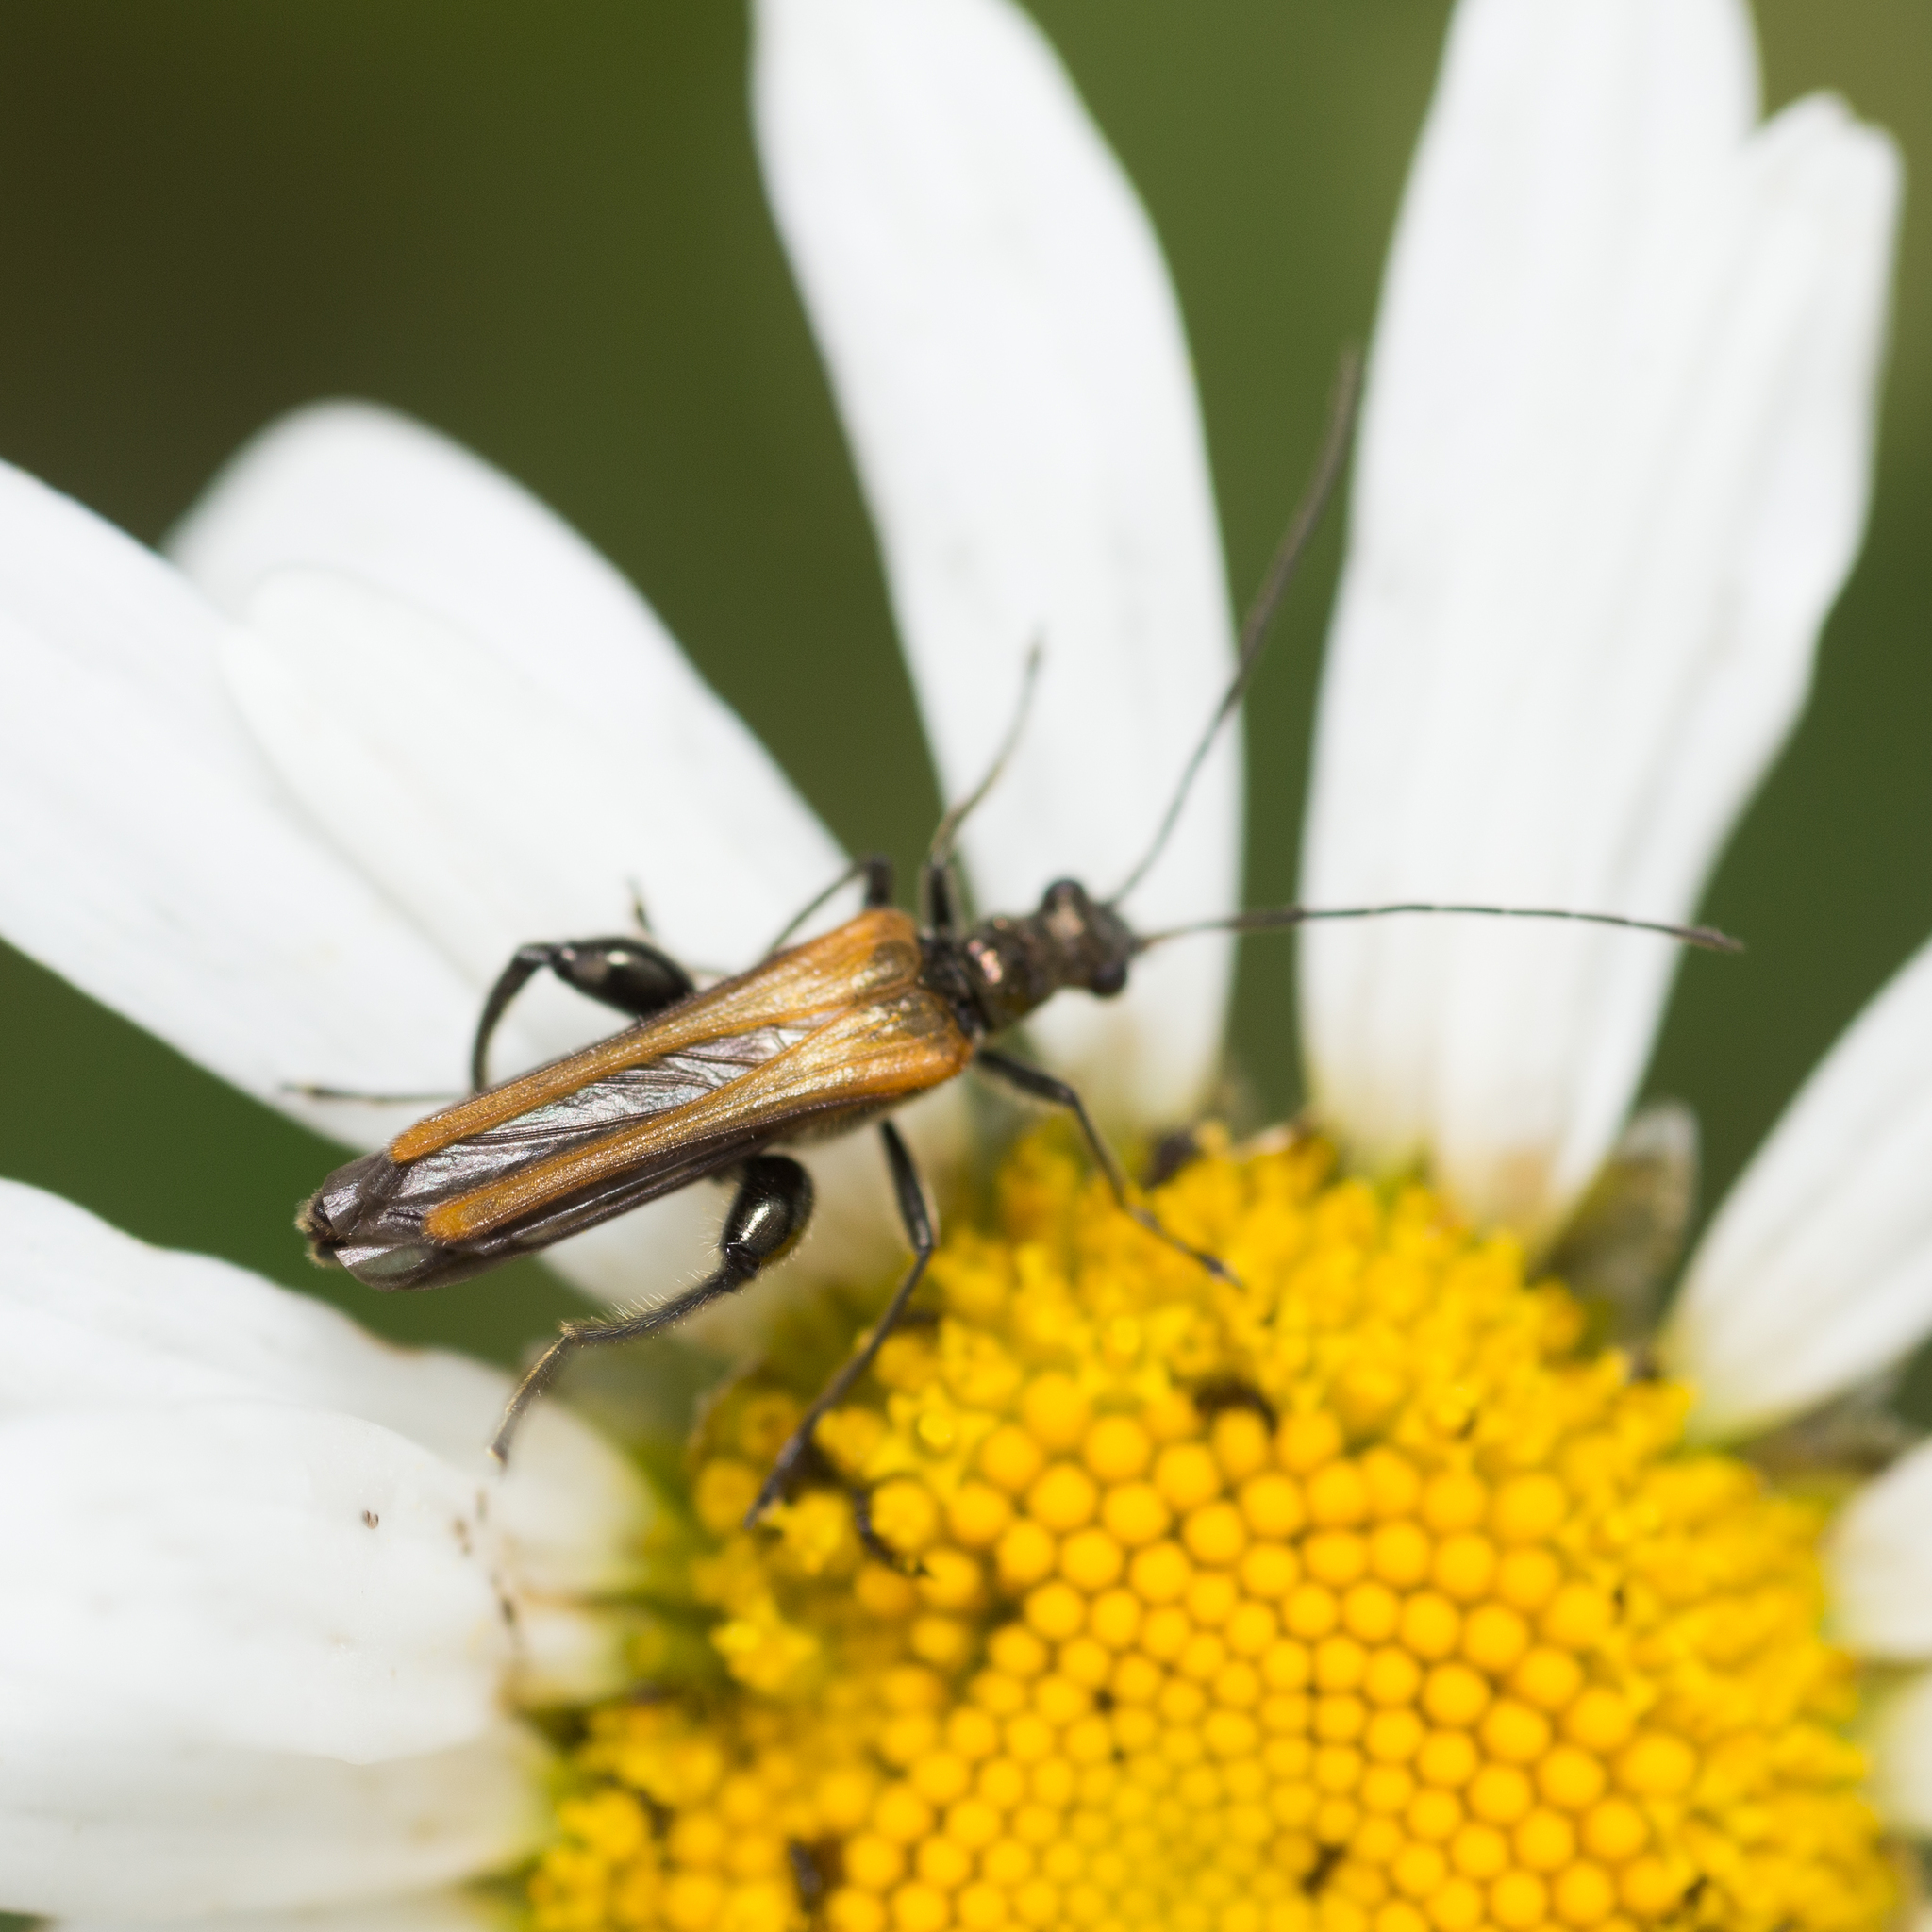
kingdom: Animalia
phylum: Arthropoda
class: Insecta
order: Coleoptera
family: Oedemeridae
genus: Oedemera
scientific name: Oedemera femorata
